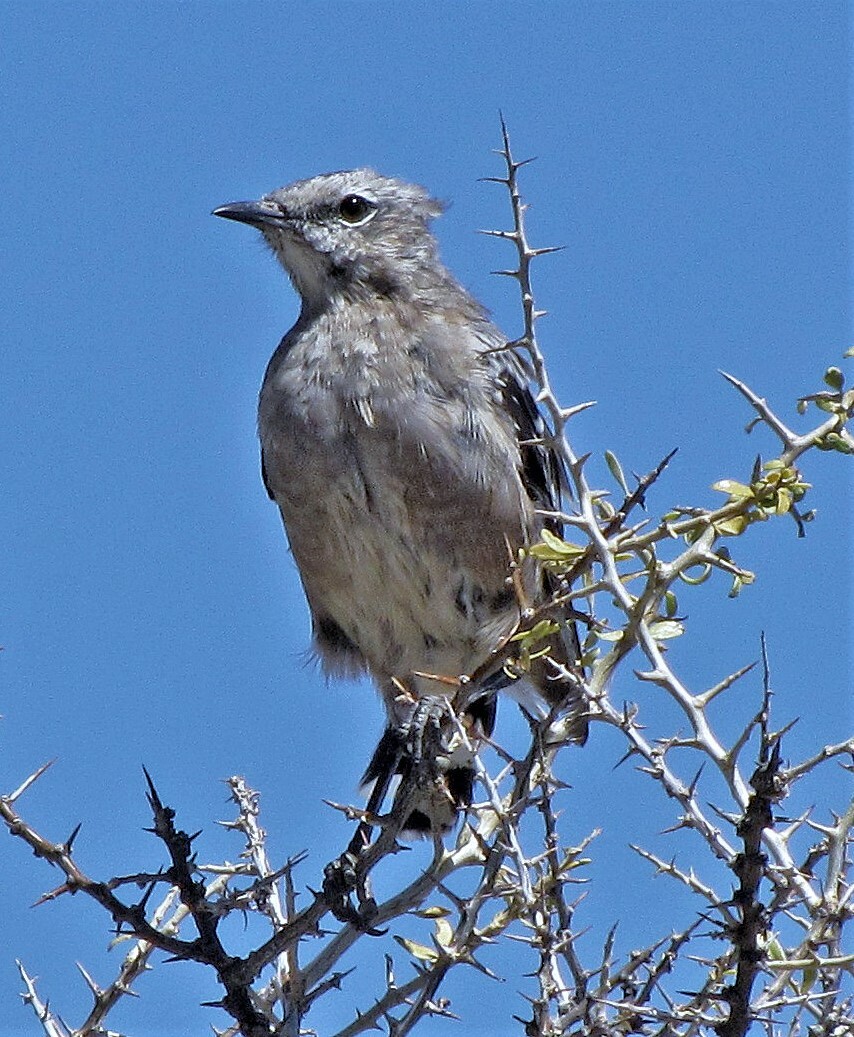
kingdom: Animalia
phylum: Chordata
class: Aves
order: Passeriformes
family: Mimidae
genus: Mimus
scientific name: Mimus patagonicus
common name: Patagonian mockingbird
